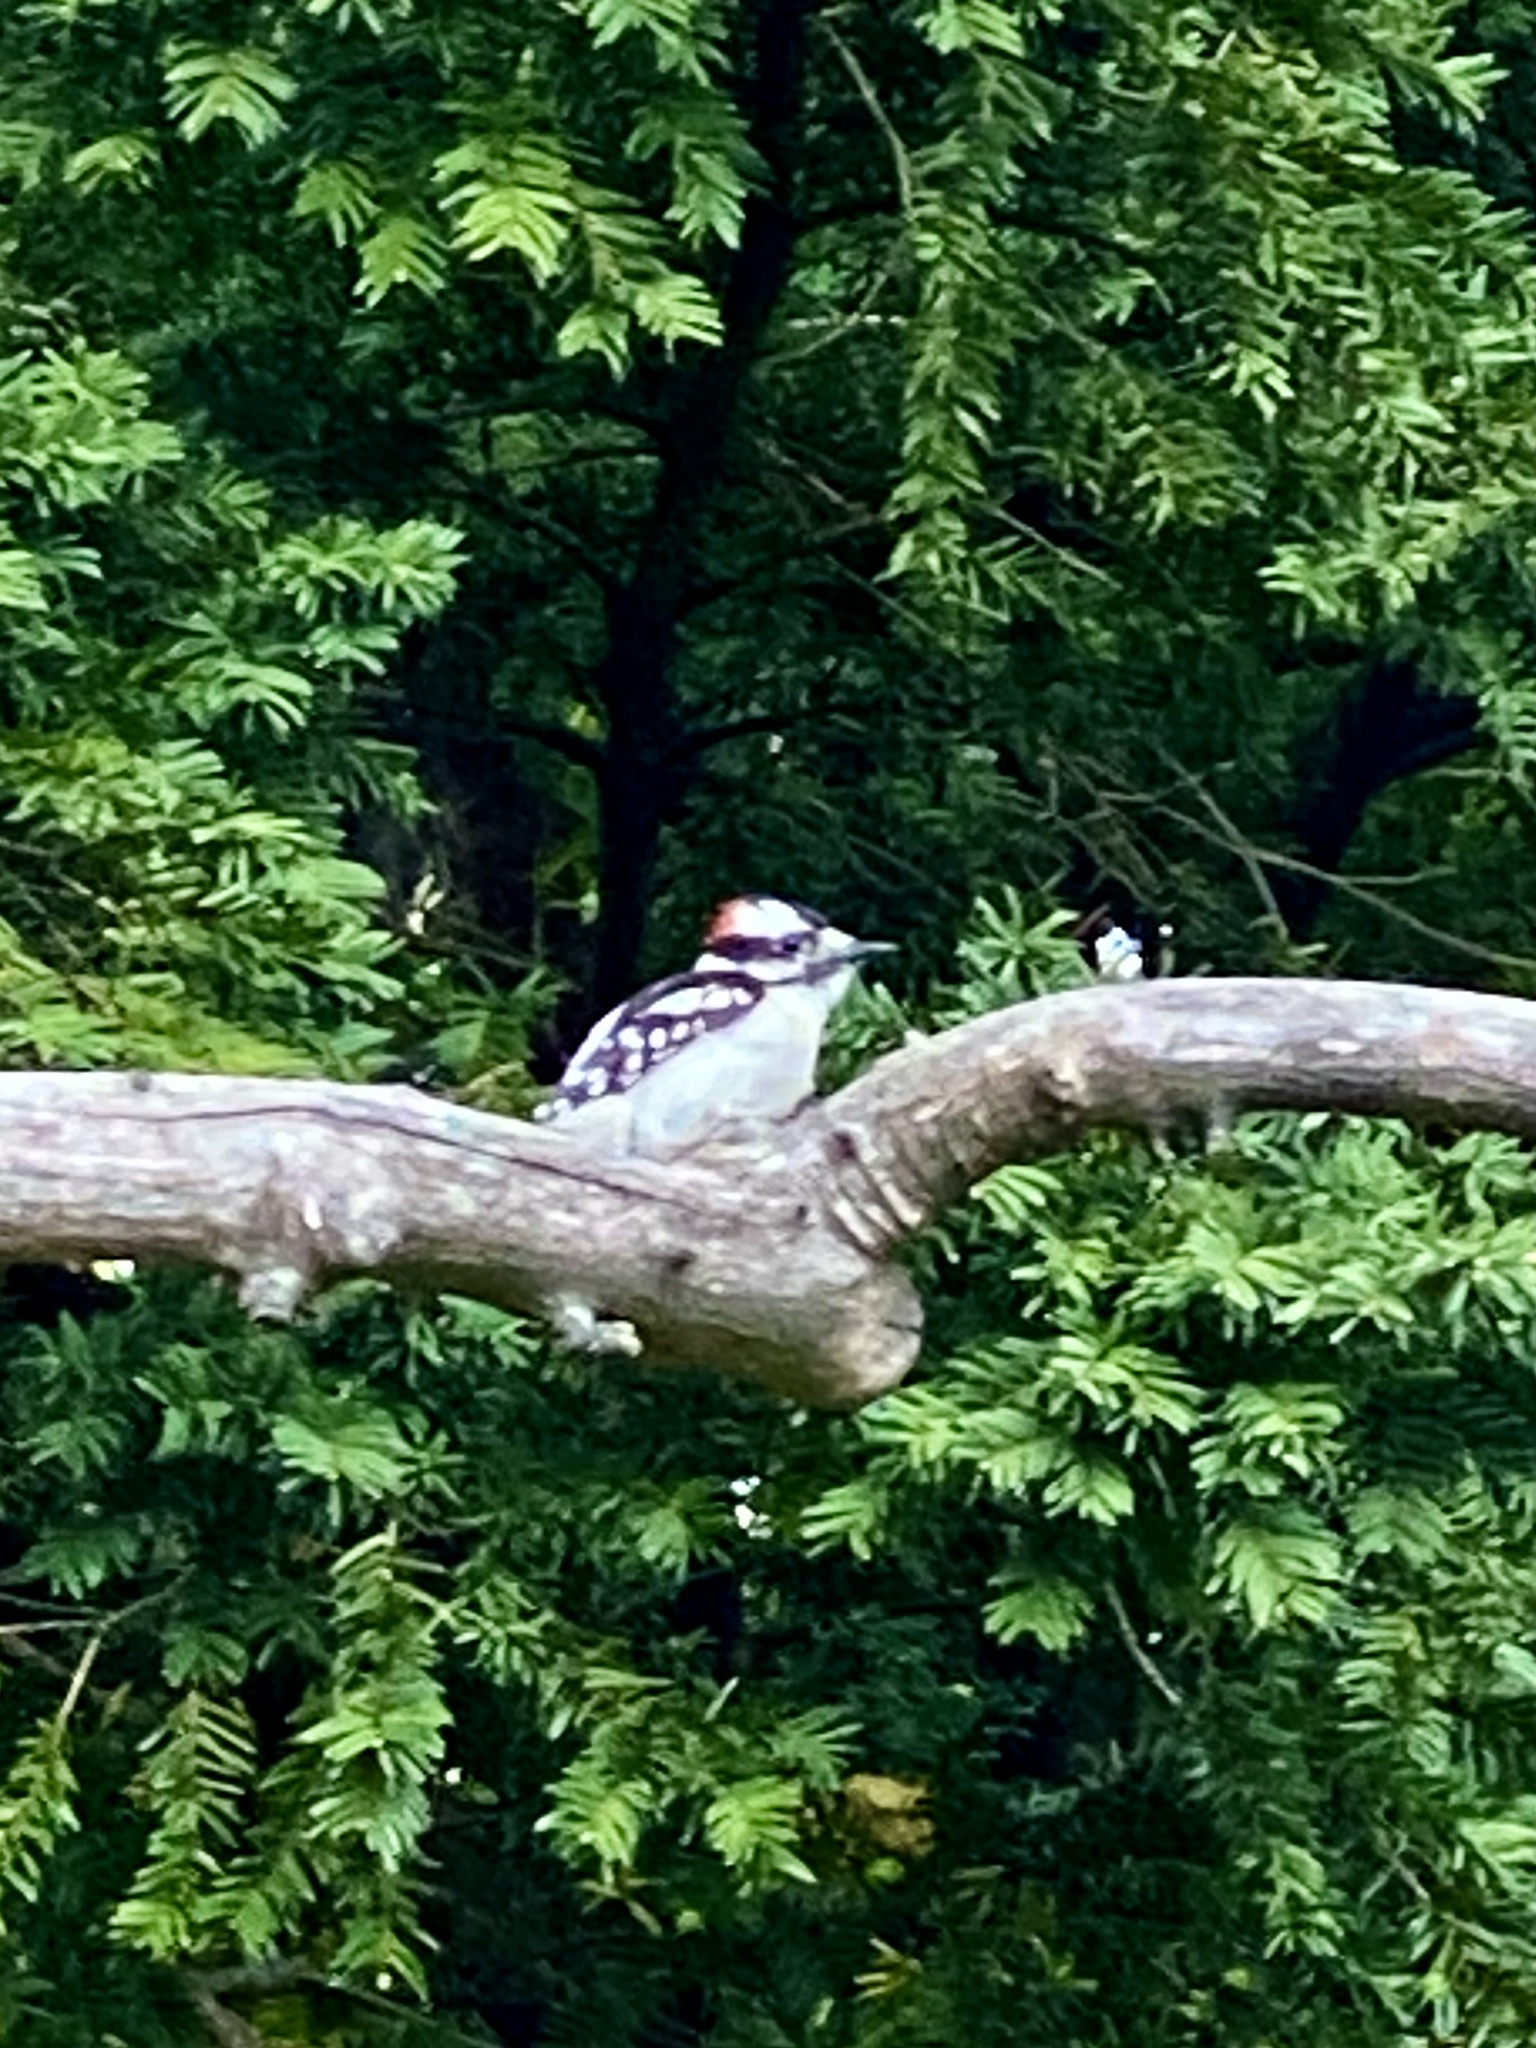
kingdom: Animalia
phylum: Chordata
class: Aves
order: Piciformes
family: Picidae
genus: Dryobates
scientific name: Dryobates pubescens
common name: Downy woodpecker
